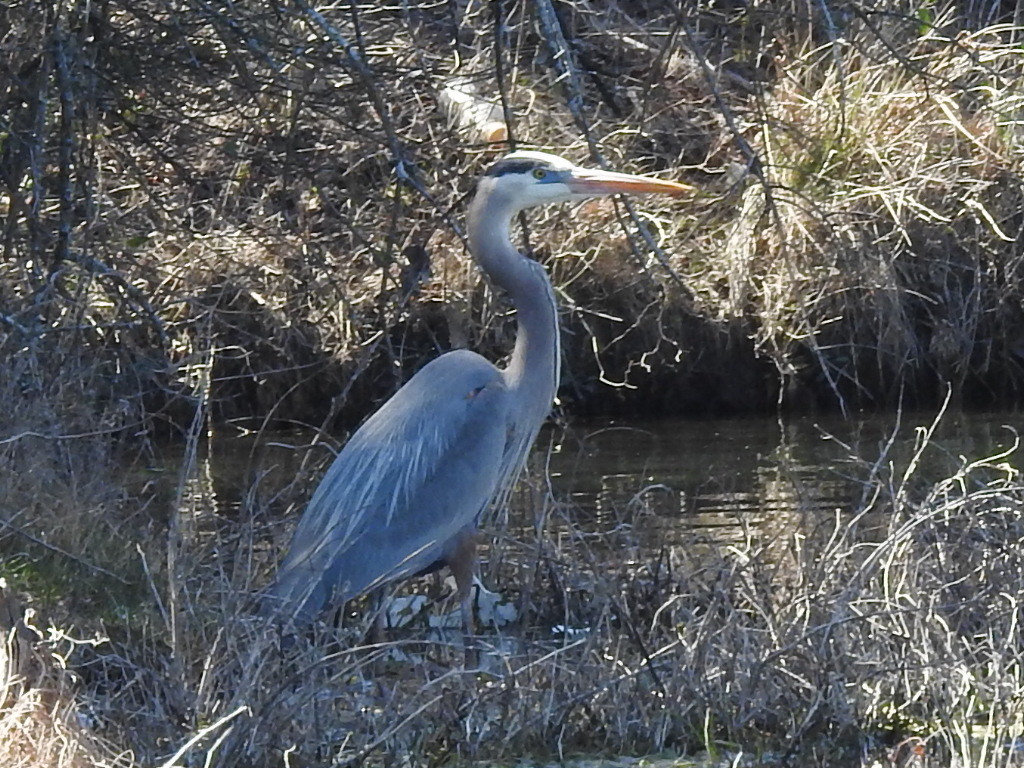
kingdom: Animalia
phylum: Chordata
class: Aves
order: Pelecaniformes
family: Ardeidae
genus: Ardea
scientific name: Ardea herodias
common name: Great blue heron
